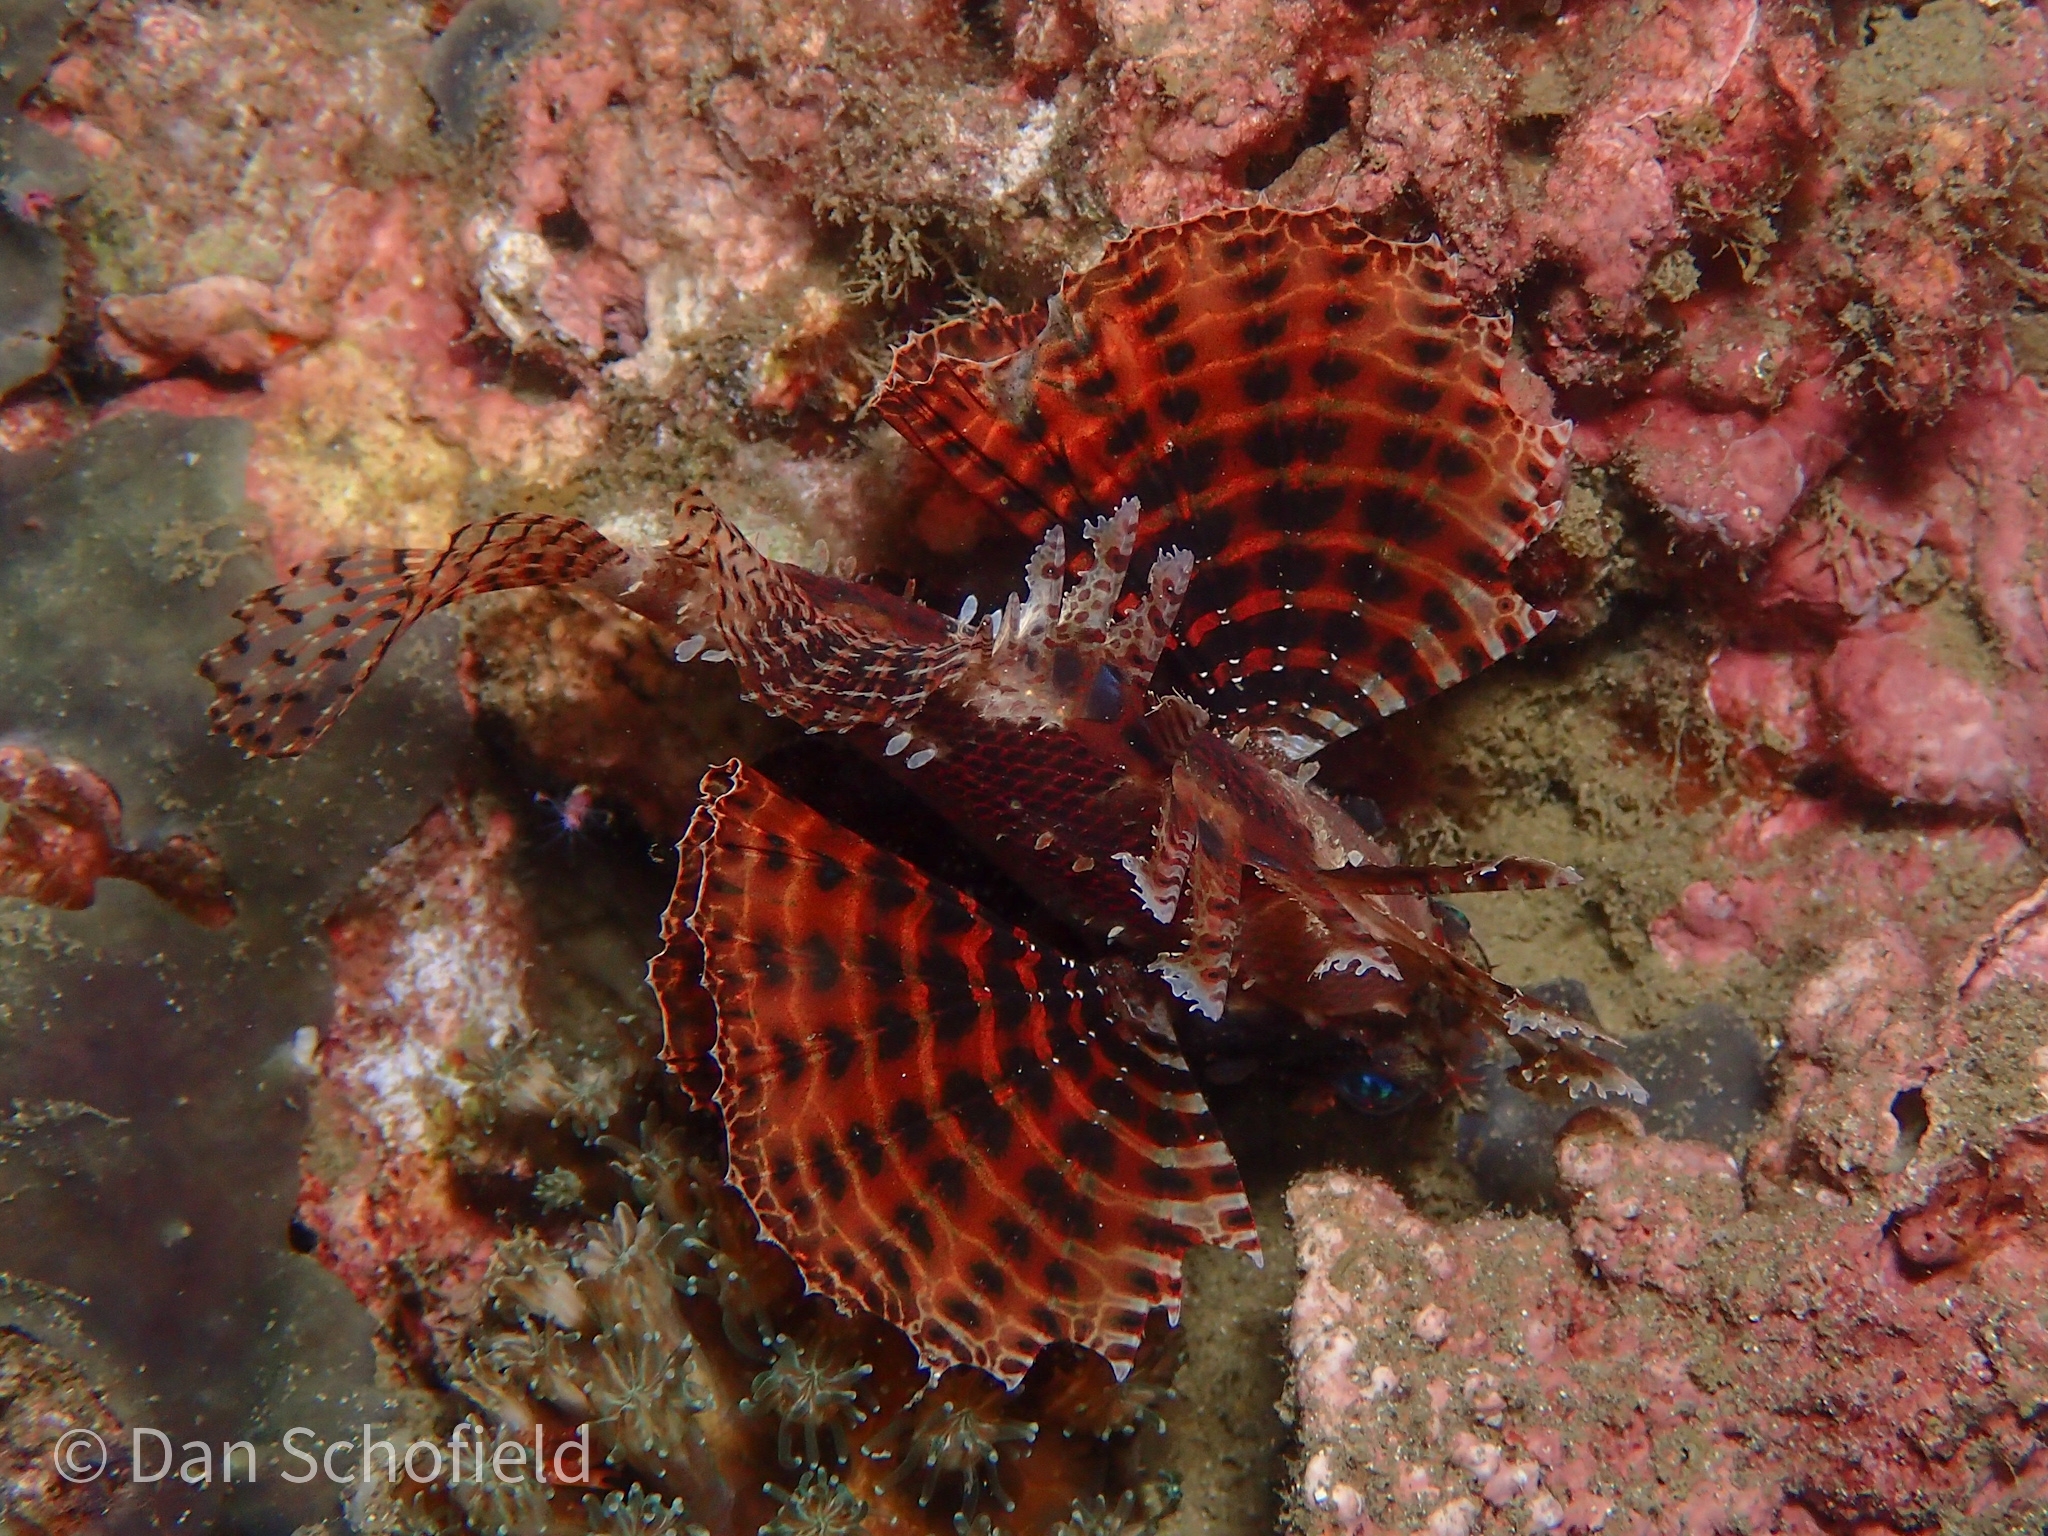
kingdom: Animalia
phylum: Chordata
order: Scorpaeniformes
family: Scorpaenidae
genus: Dendrochirus
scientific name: Dendrochirus brachypterus
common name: Shortfin turkeyfish
